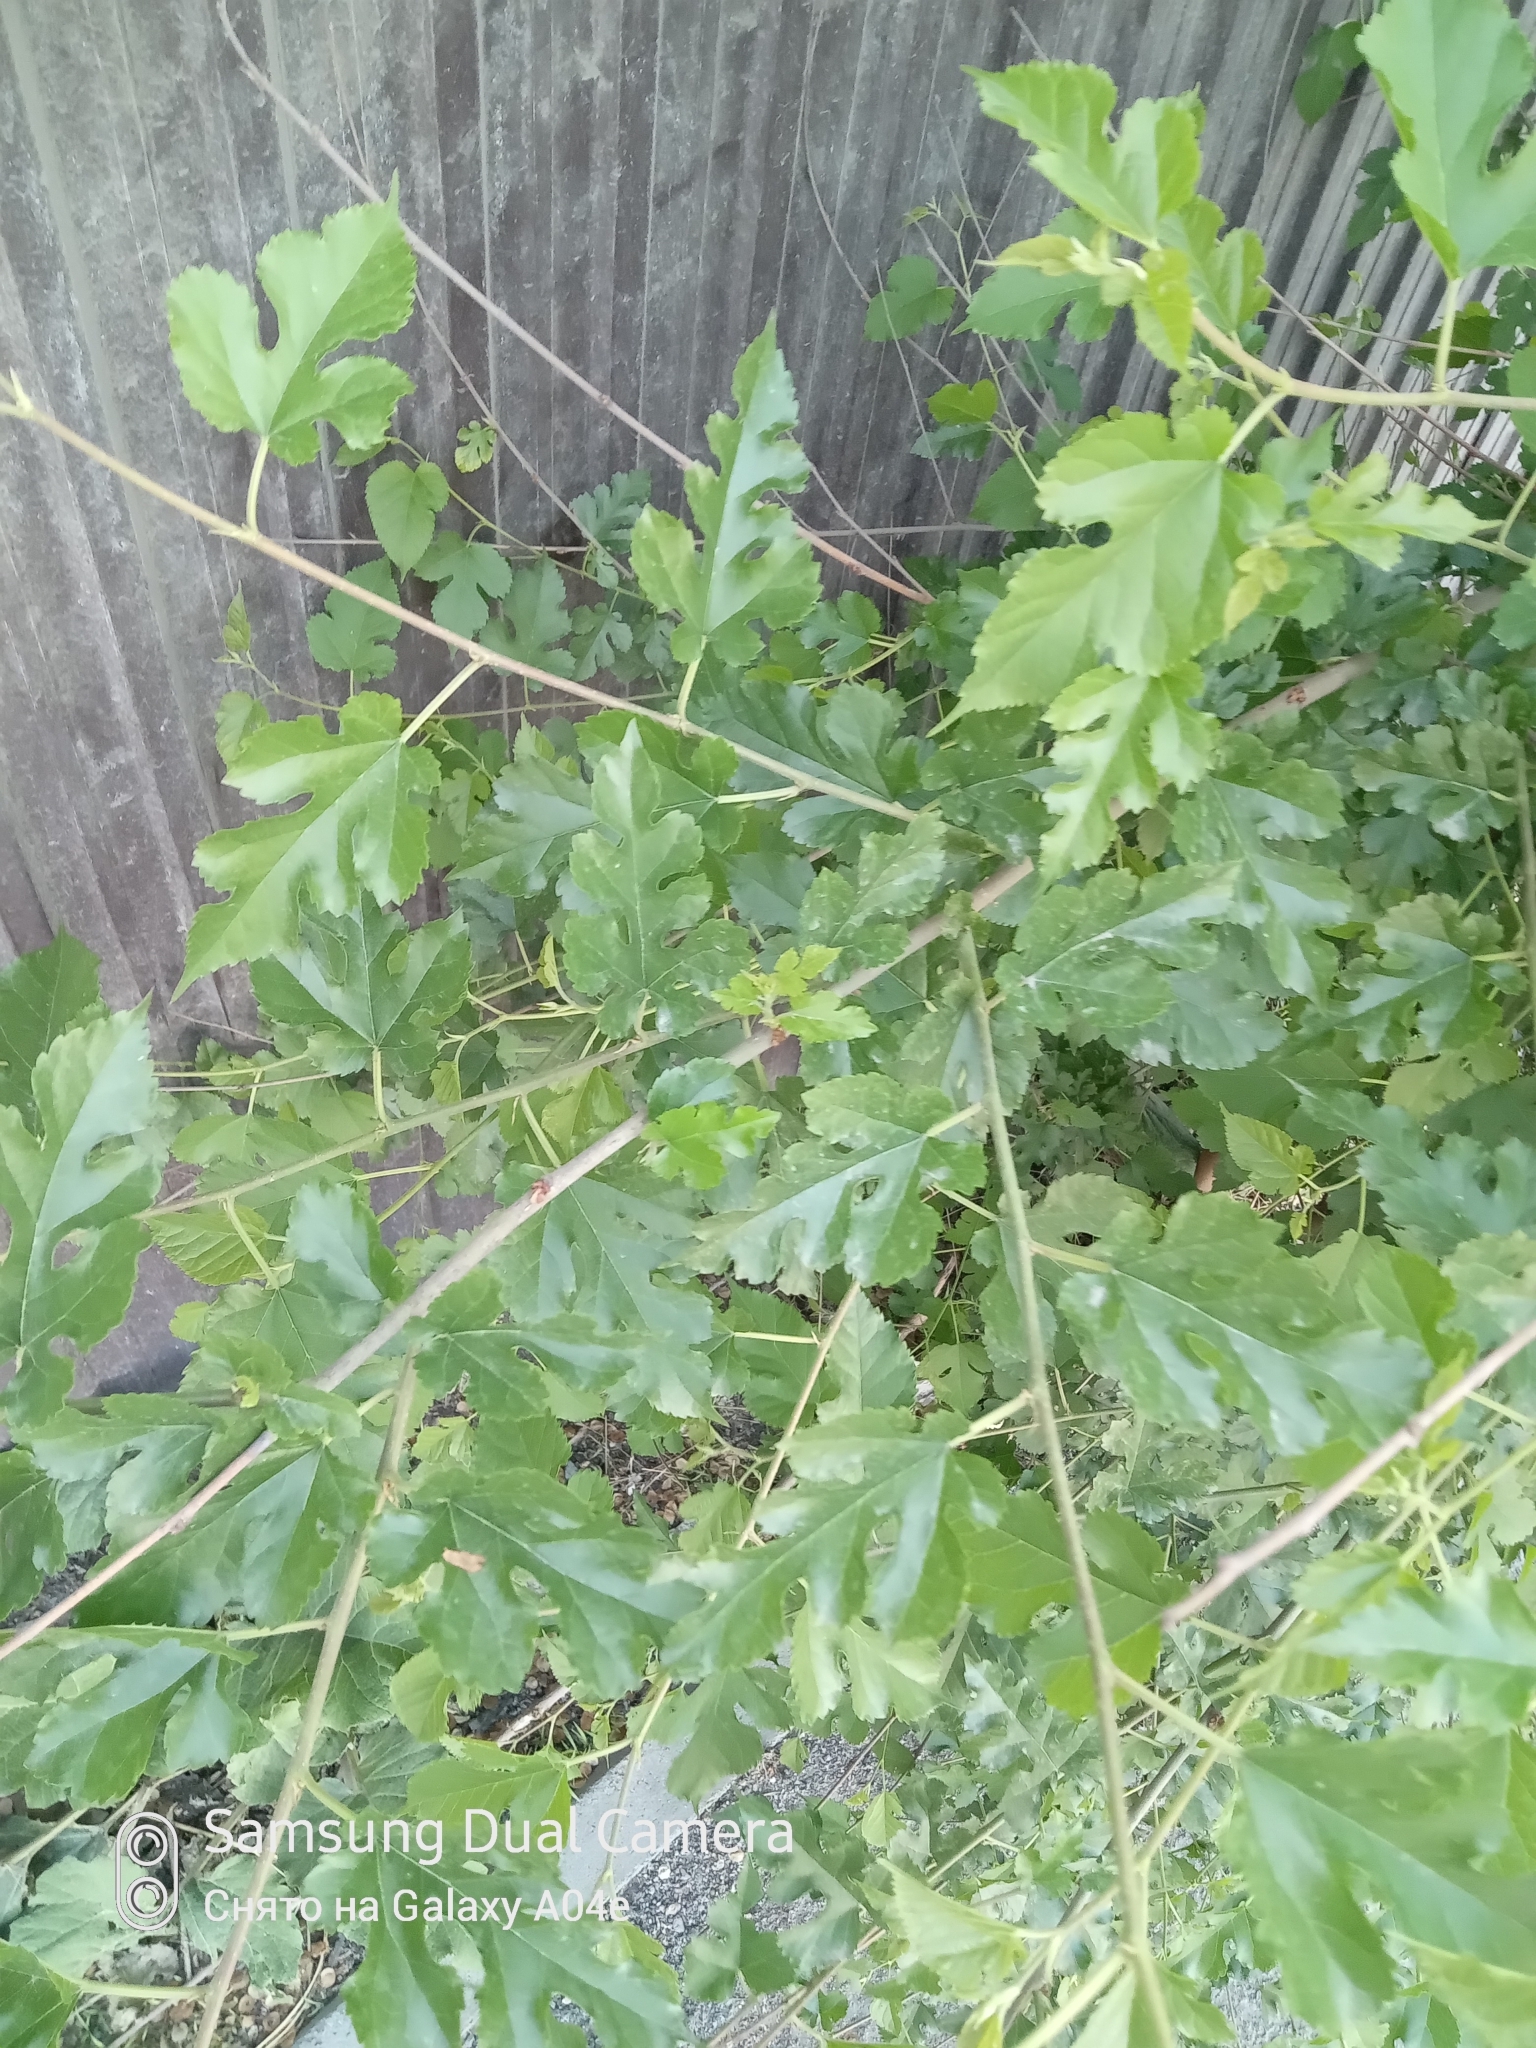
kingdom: Plantae
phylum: Tracheophyta
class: Magnoliopsida
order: Rosales
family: Moraceae
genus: Morus
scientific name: Morus alba
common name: White mulberry
